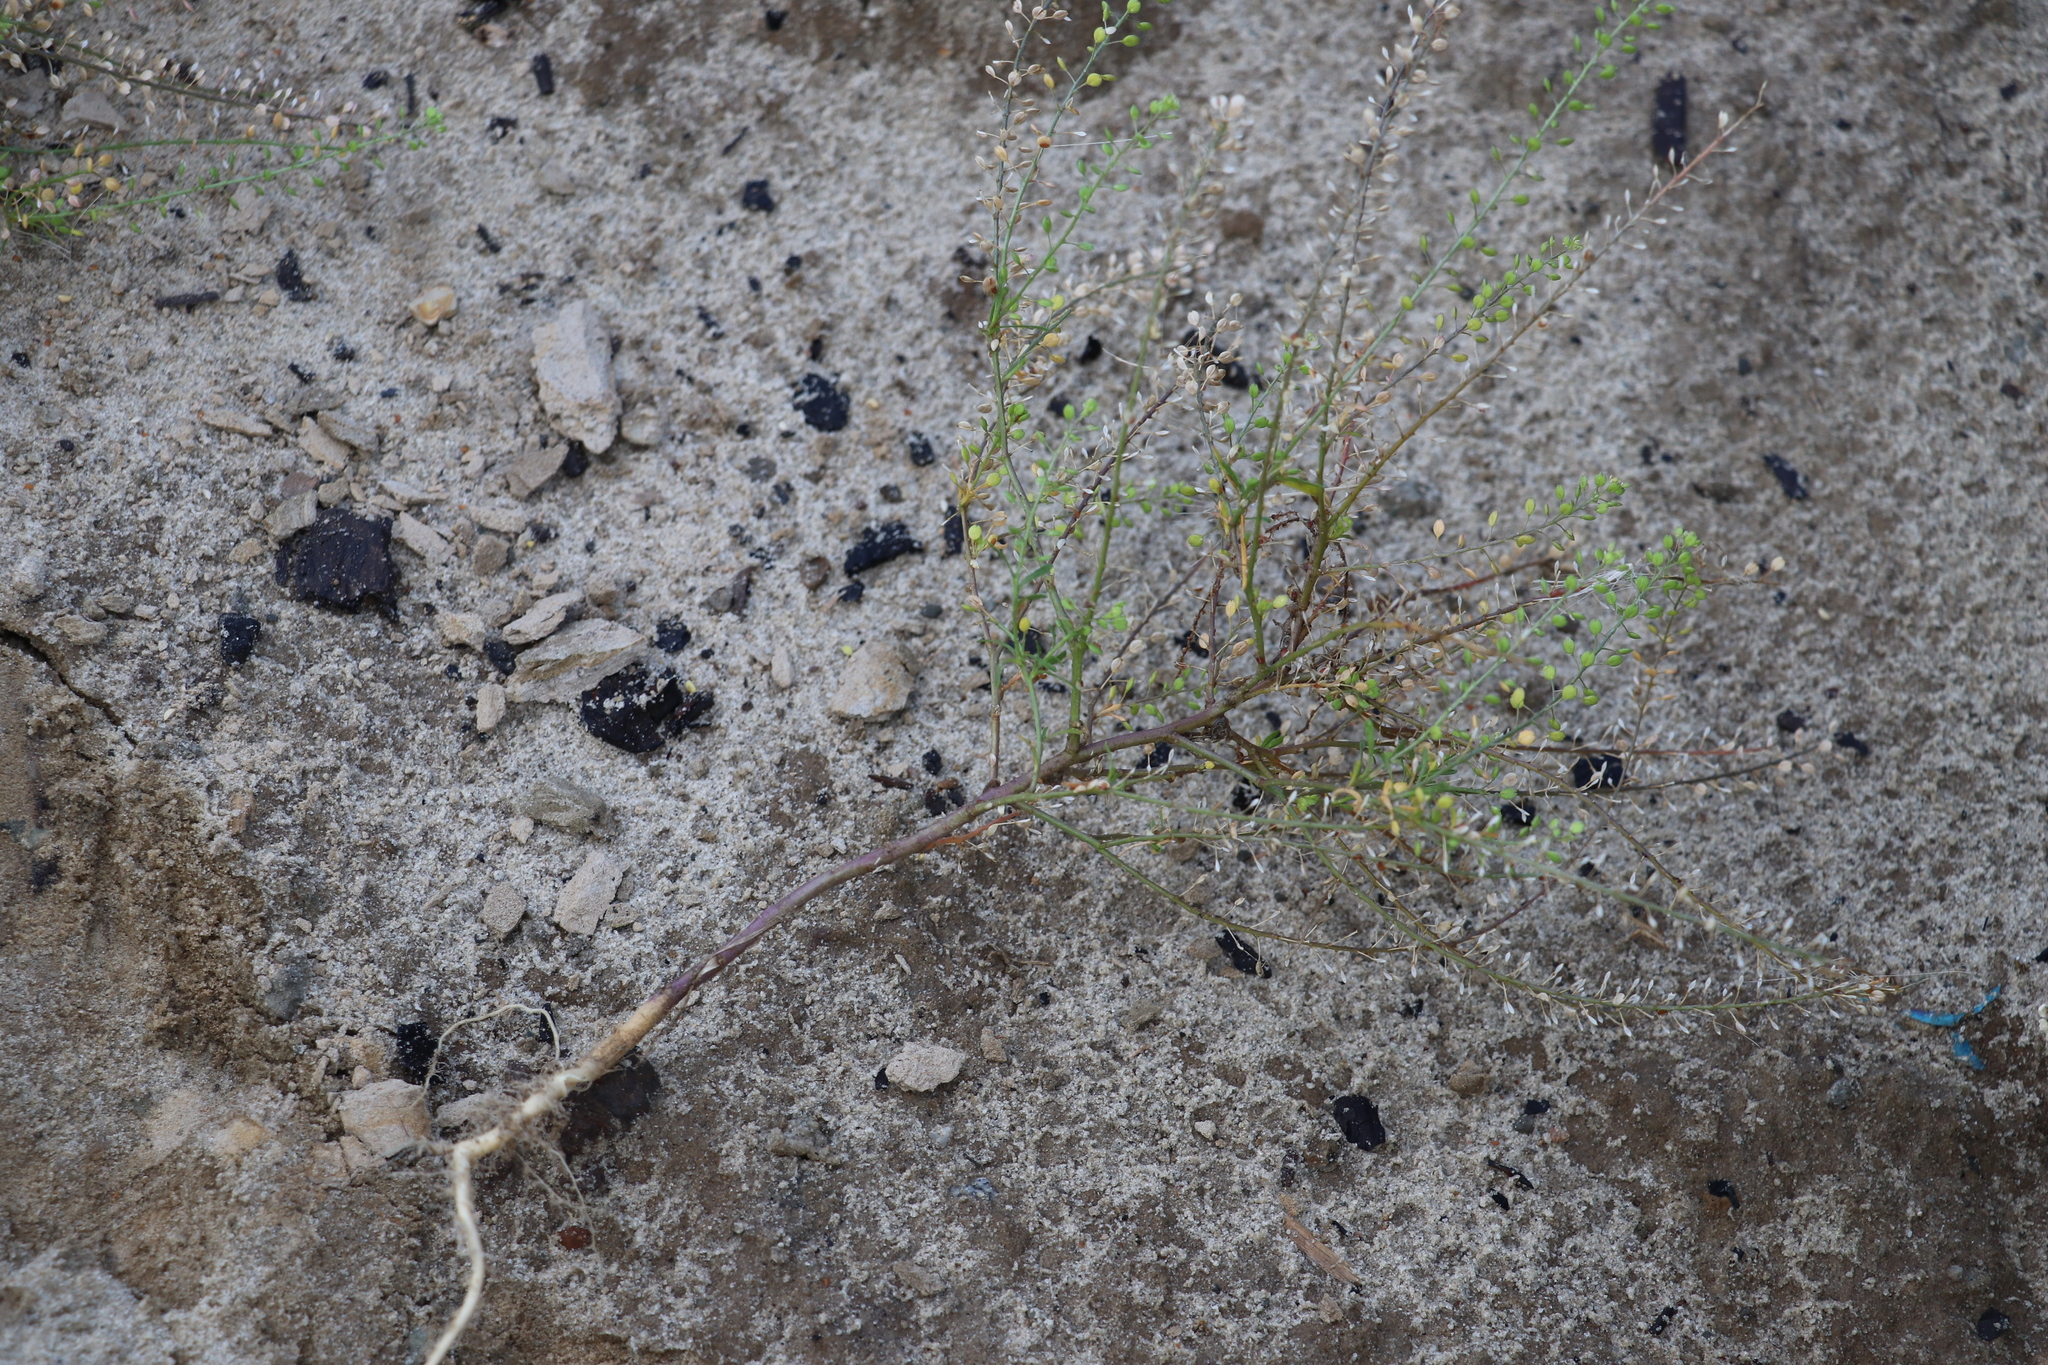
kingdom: Plantae
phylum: Tracheophyta
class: Magnoliopsida
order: Brassicales
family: Brassicaceae
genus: Lepidium
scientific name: Lepidium ruderale
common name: Narrow-leaved pepperwort
